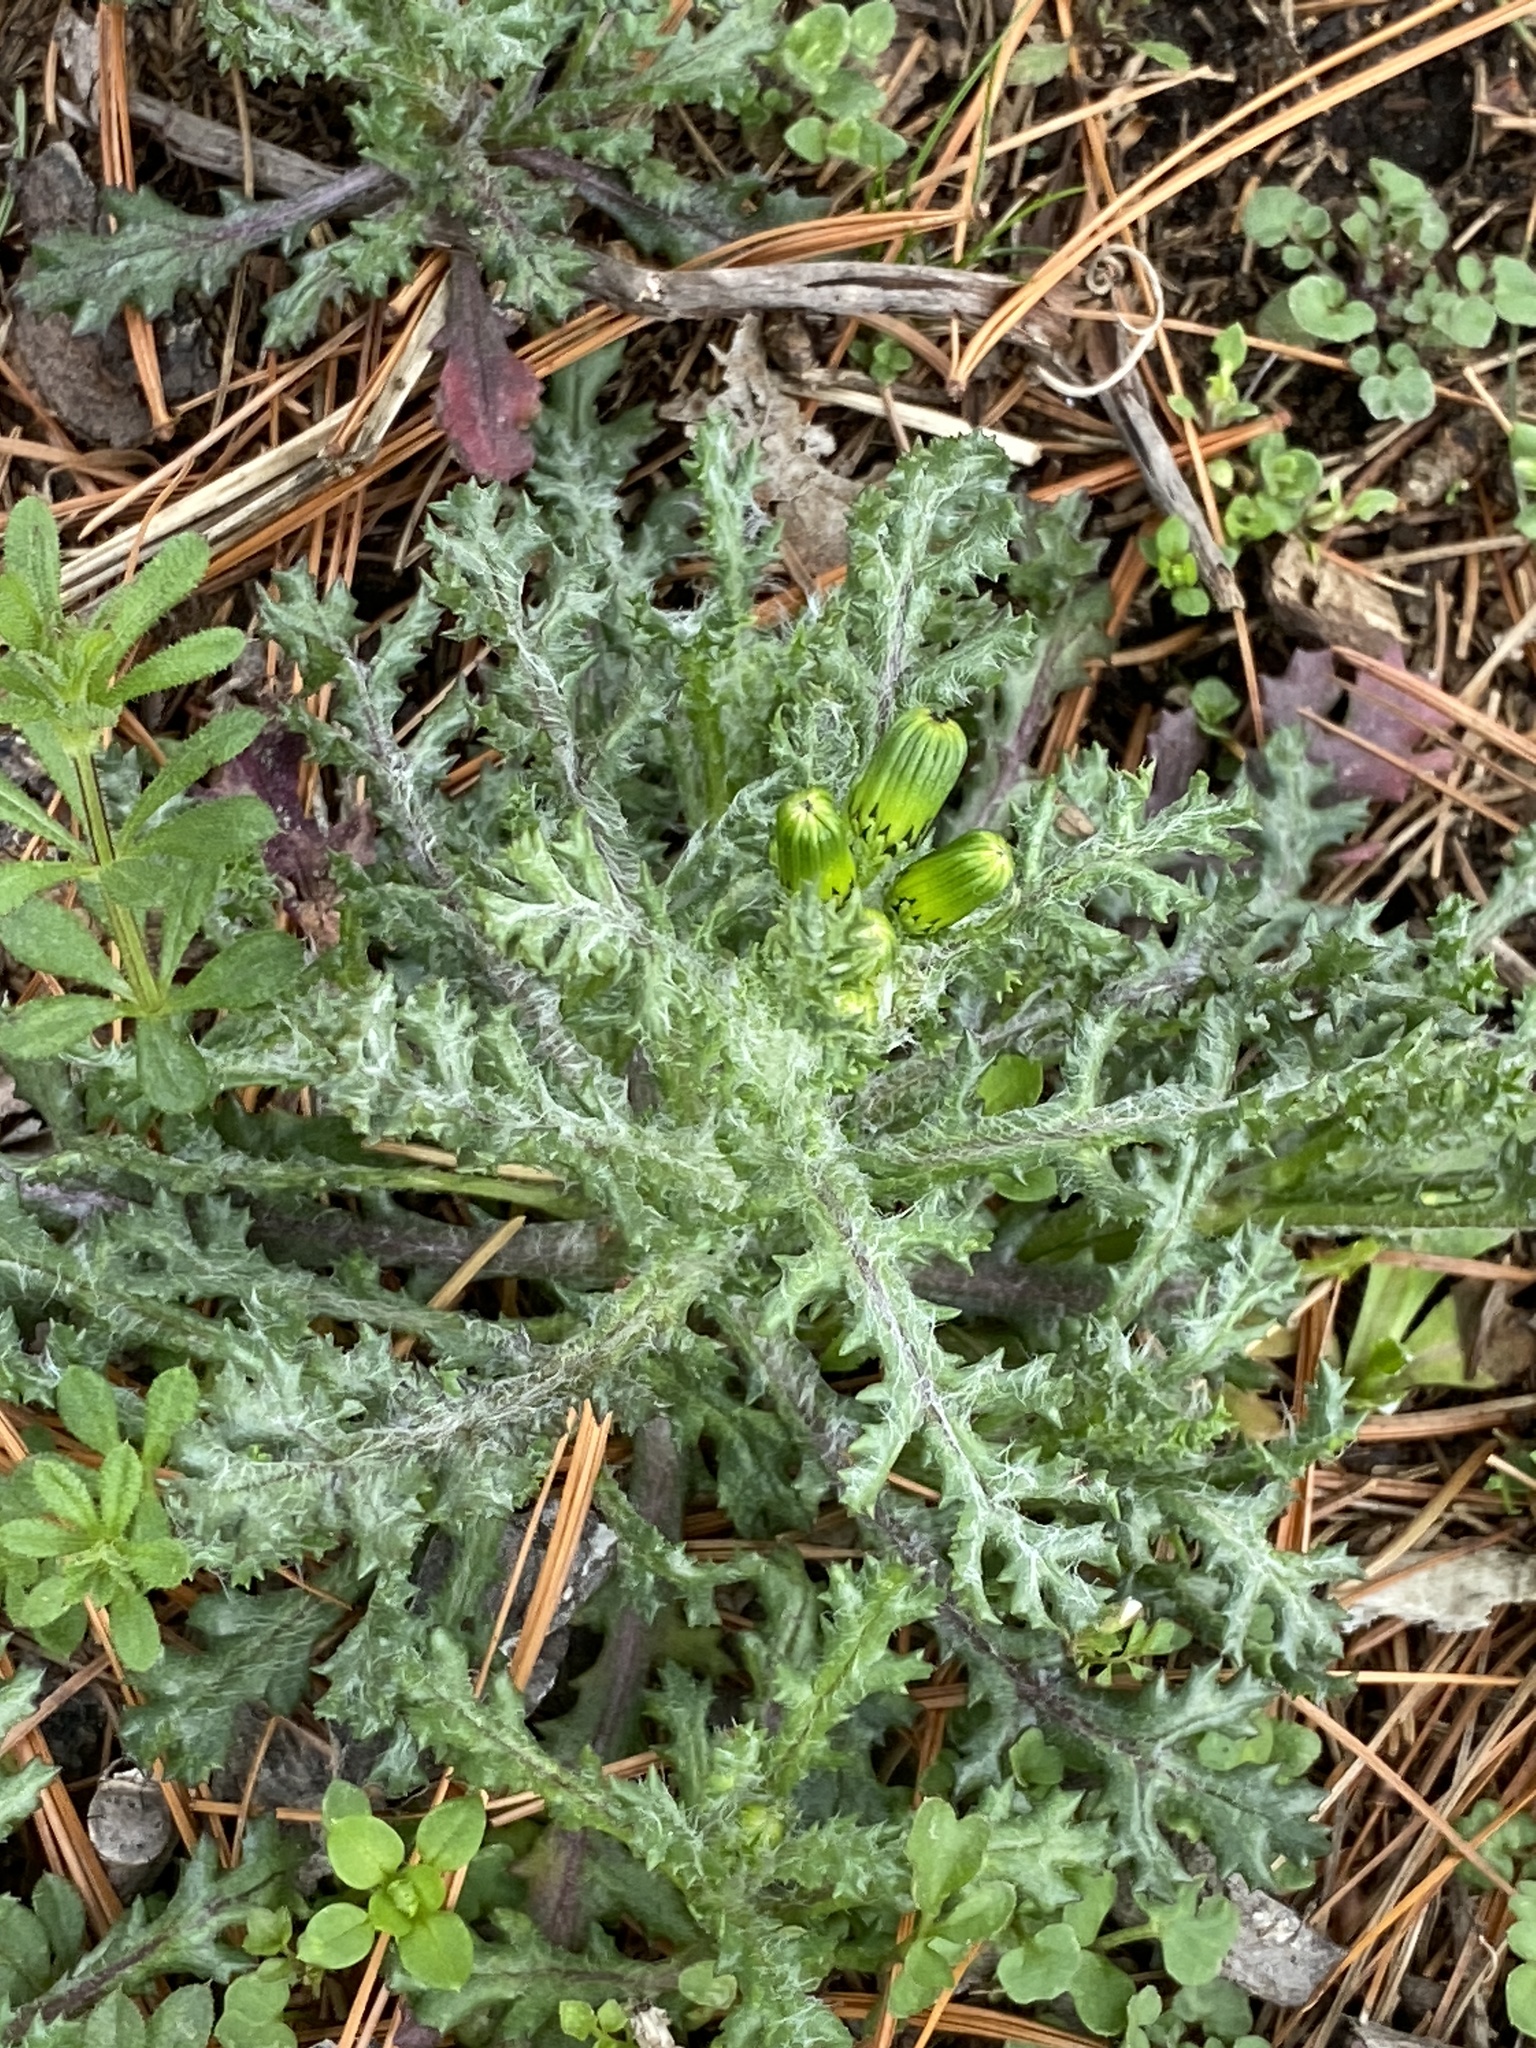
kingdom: Plantae
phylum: Tracheophyta
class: Magnoliopsida
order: Asterales
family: Asteraceae
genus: Senecio
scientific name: Senecio vulgaris
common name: Old-man-in-the-spring
